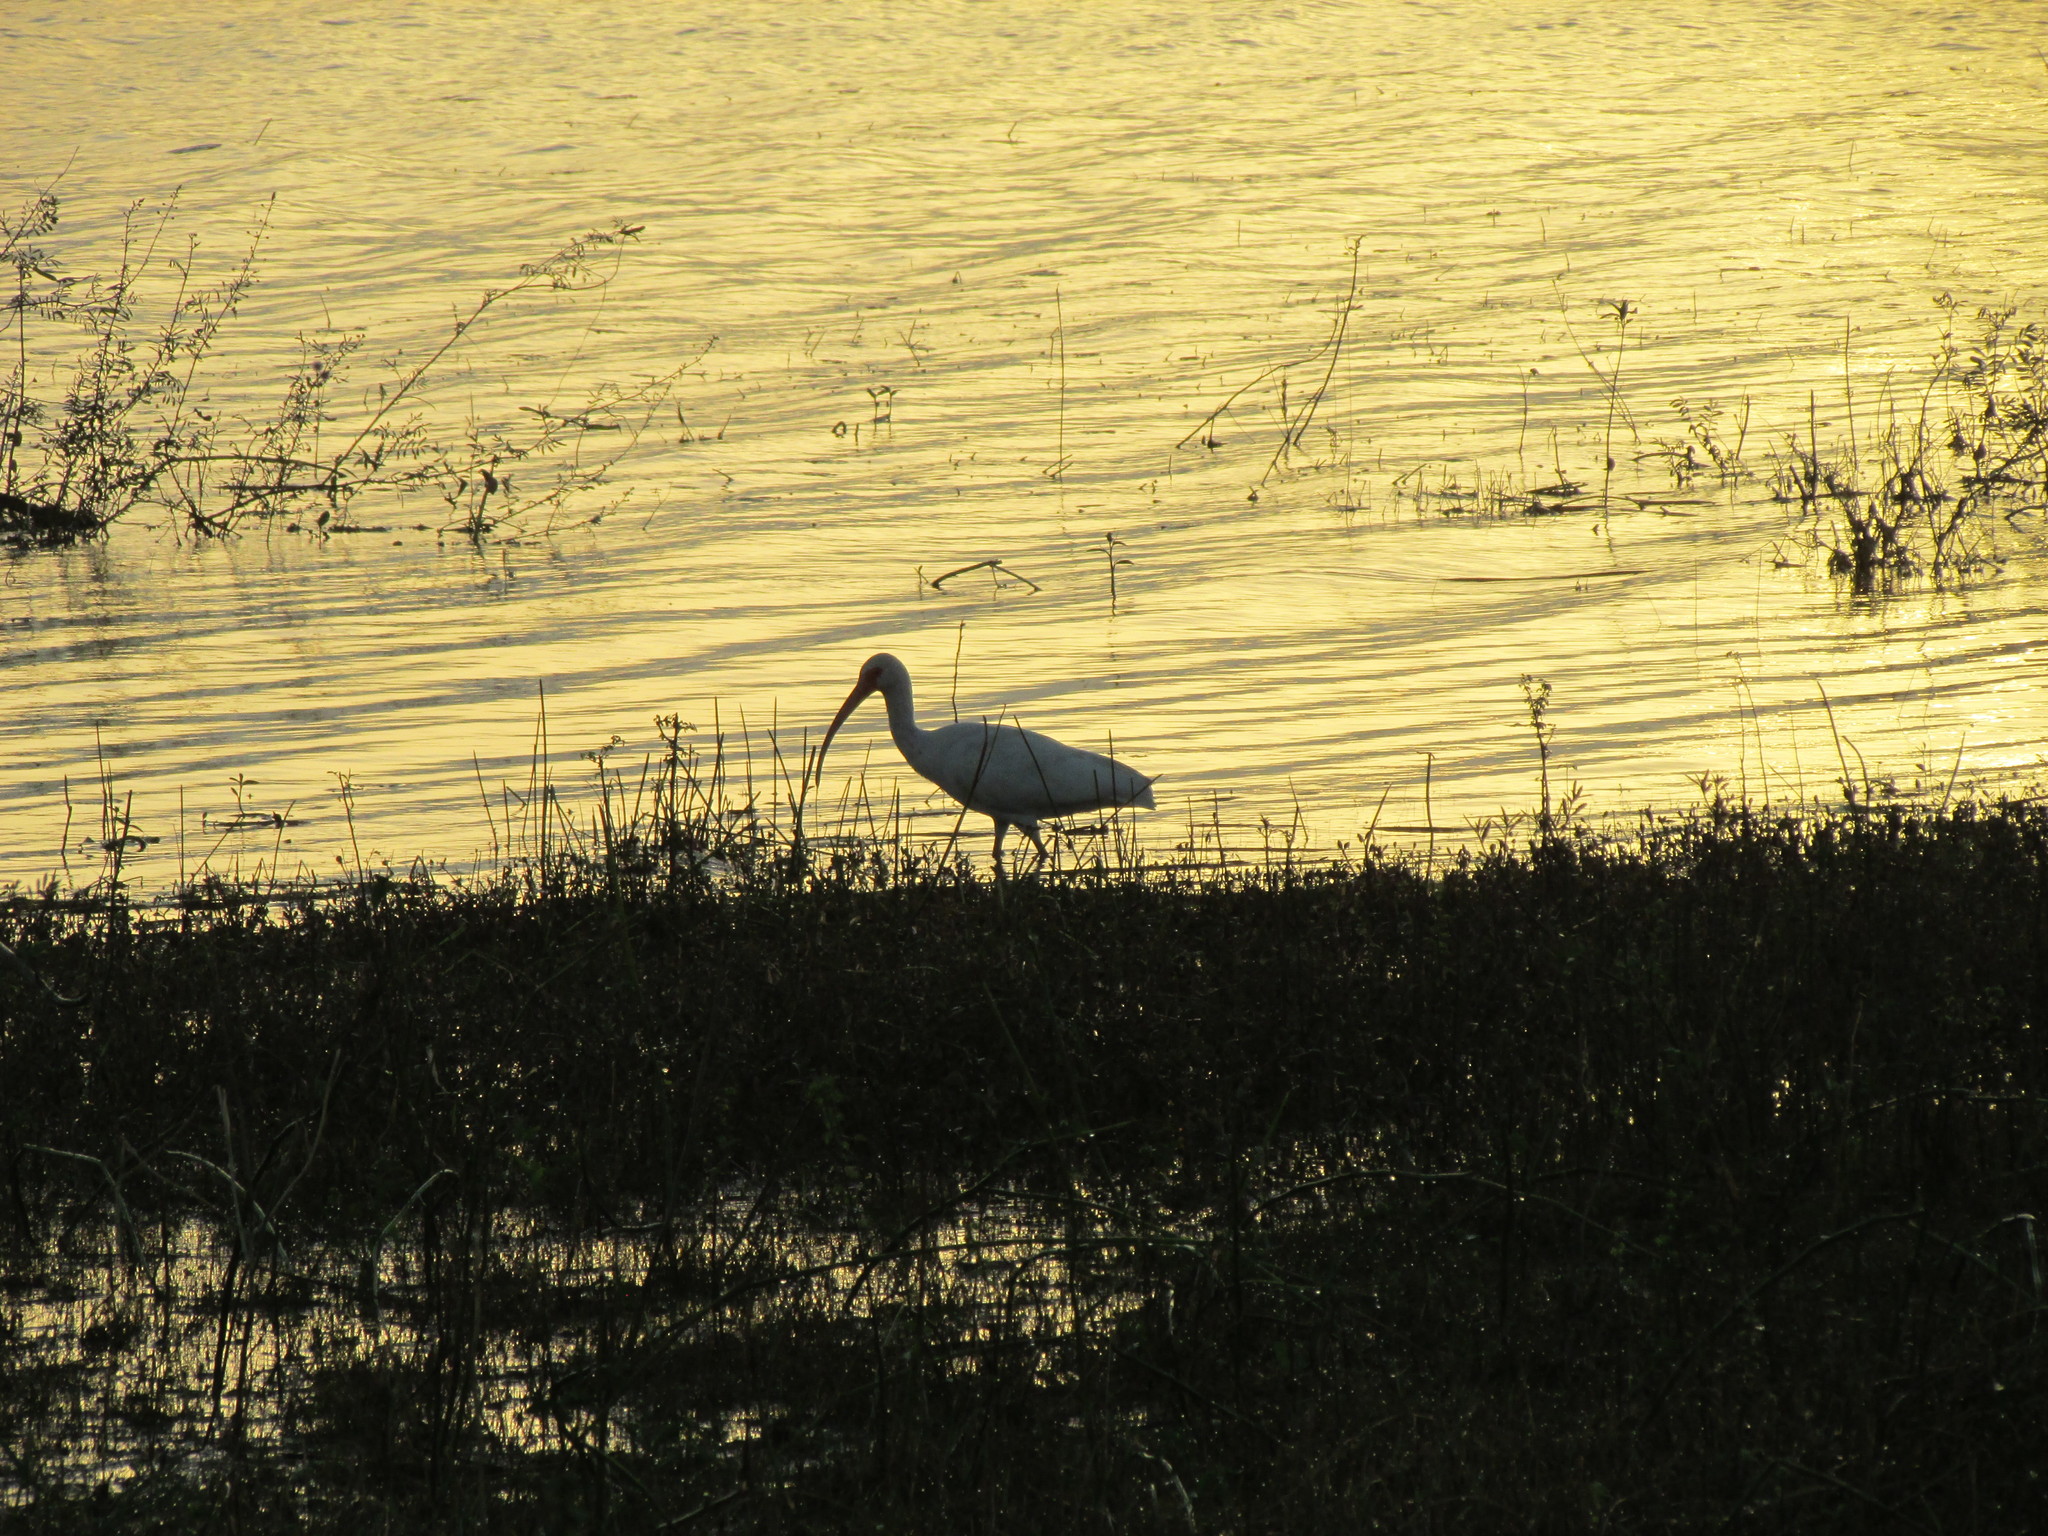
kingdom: Animalia
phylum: Chordata
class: Aves
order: Pelecaniformes
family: Threskiornithidae
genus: Eudocimus
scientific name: Eudocimus albus
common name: White ibis
